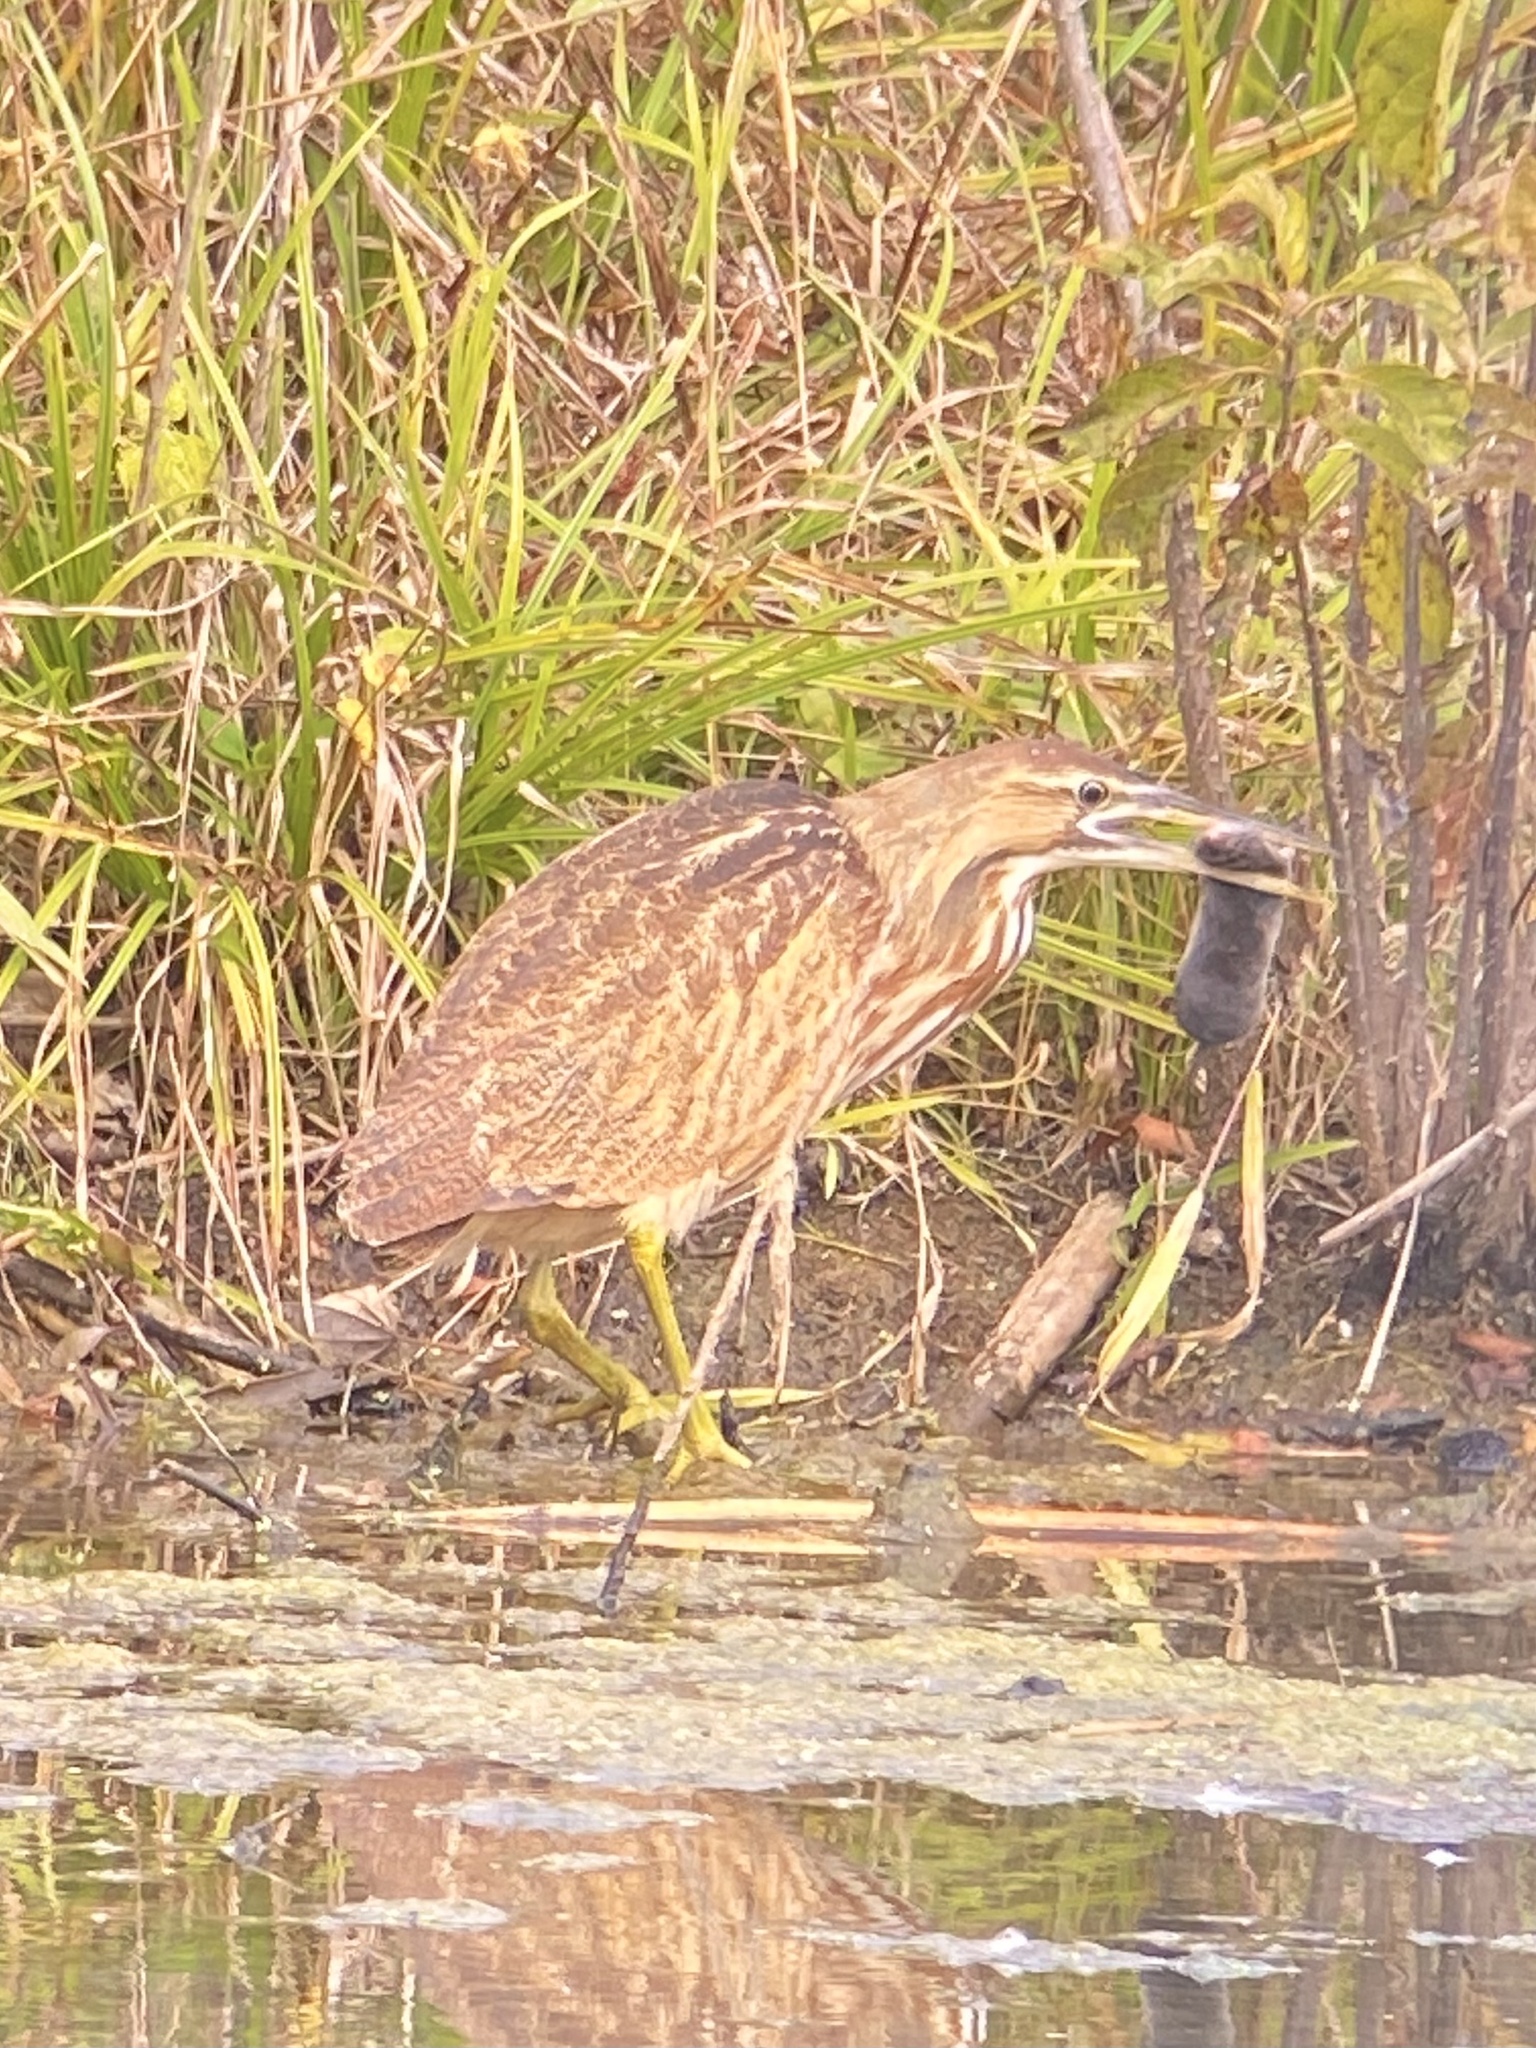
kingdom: Animalia
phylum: Chordata
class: Aves
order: Pelecaniformes
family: Ardeidae
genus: Botaurus
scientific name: Botaurus lentiginosus
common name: American bittern
